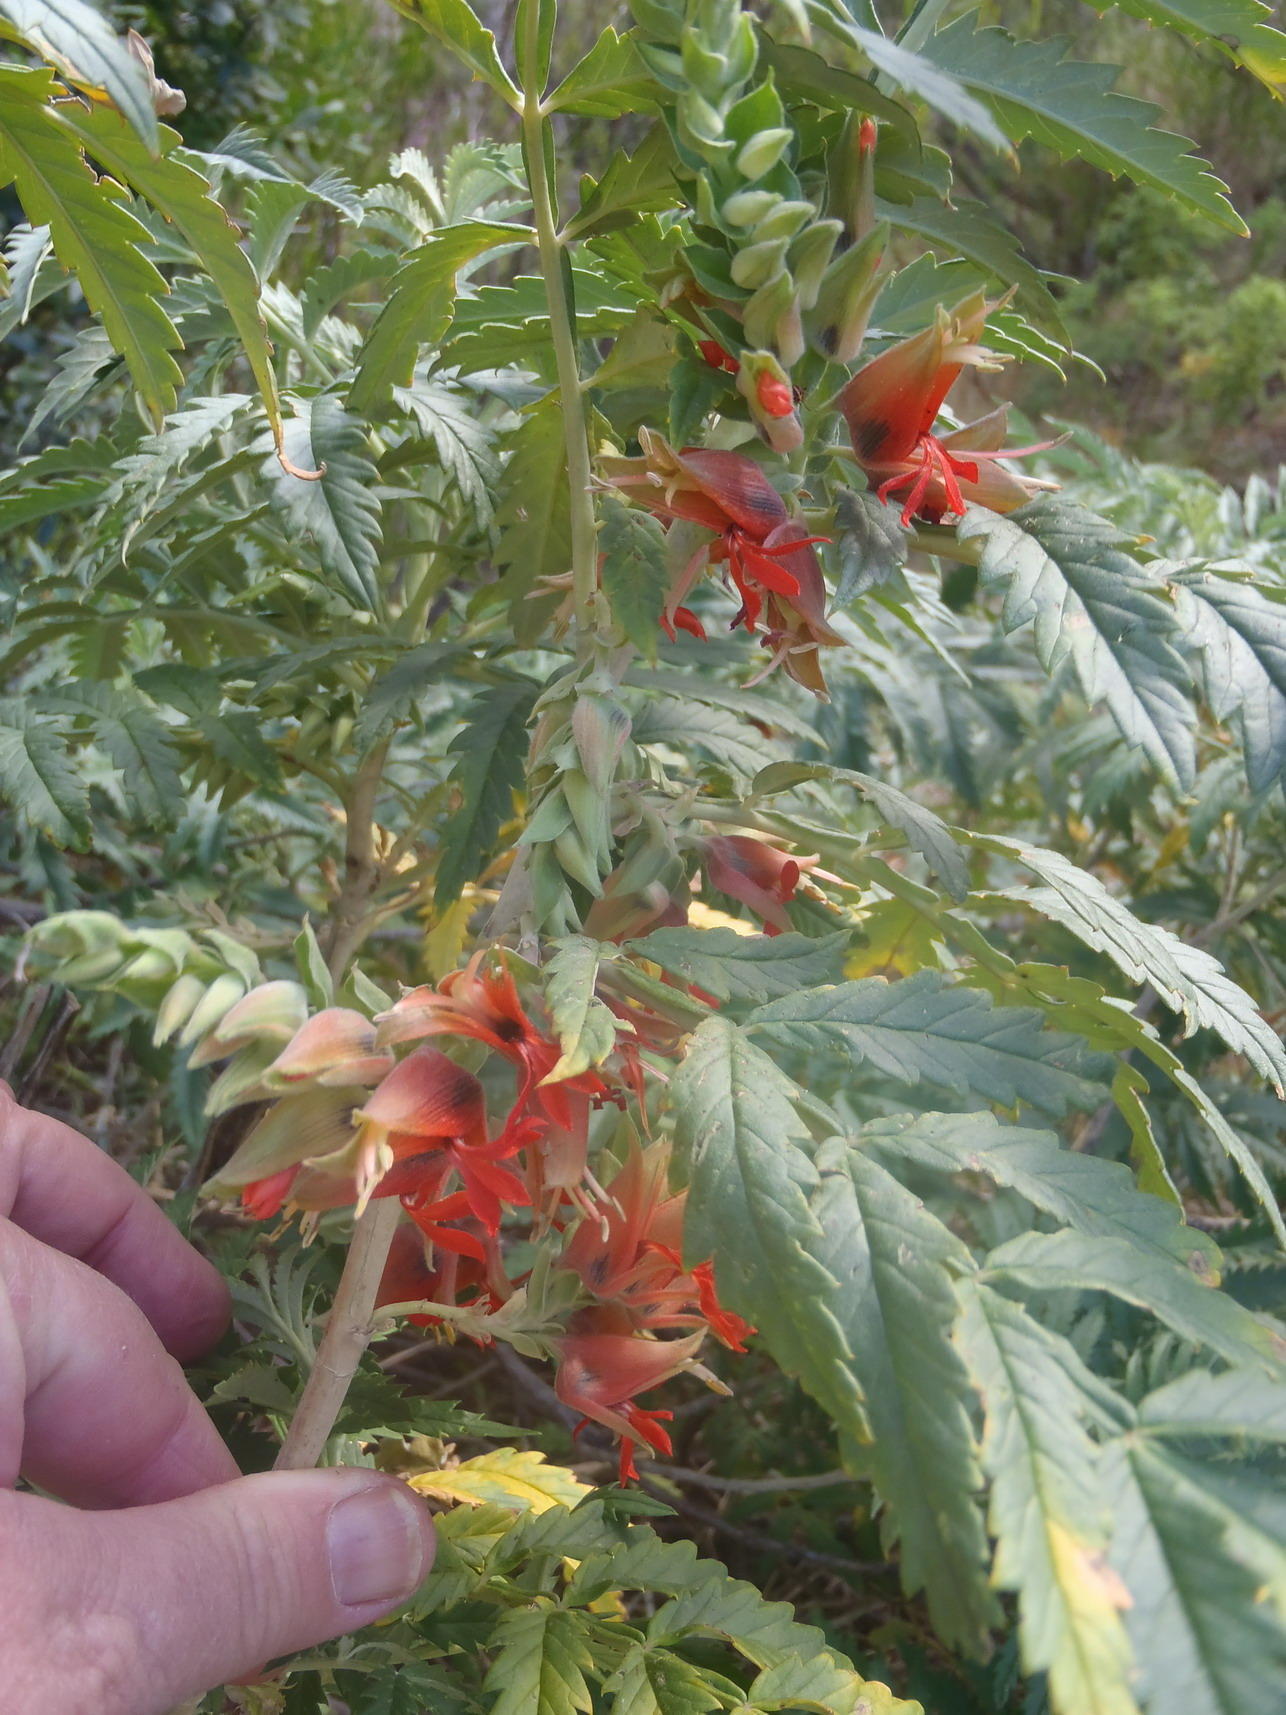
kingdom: Plantae
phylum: Tracheophyta
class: Magnoliopsida
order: Geraniales
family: Melianthaceae
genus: Melianthus
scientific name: Melianthus comosus
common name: Touch-me-not
